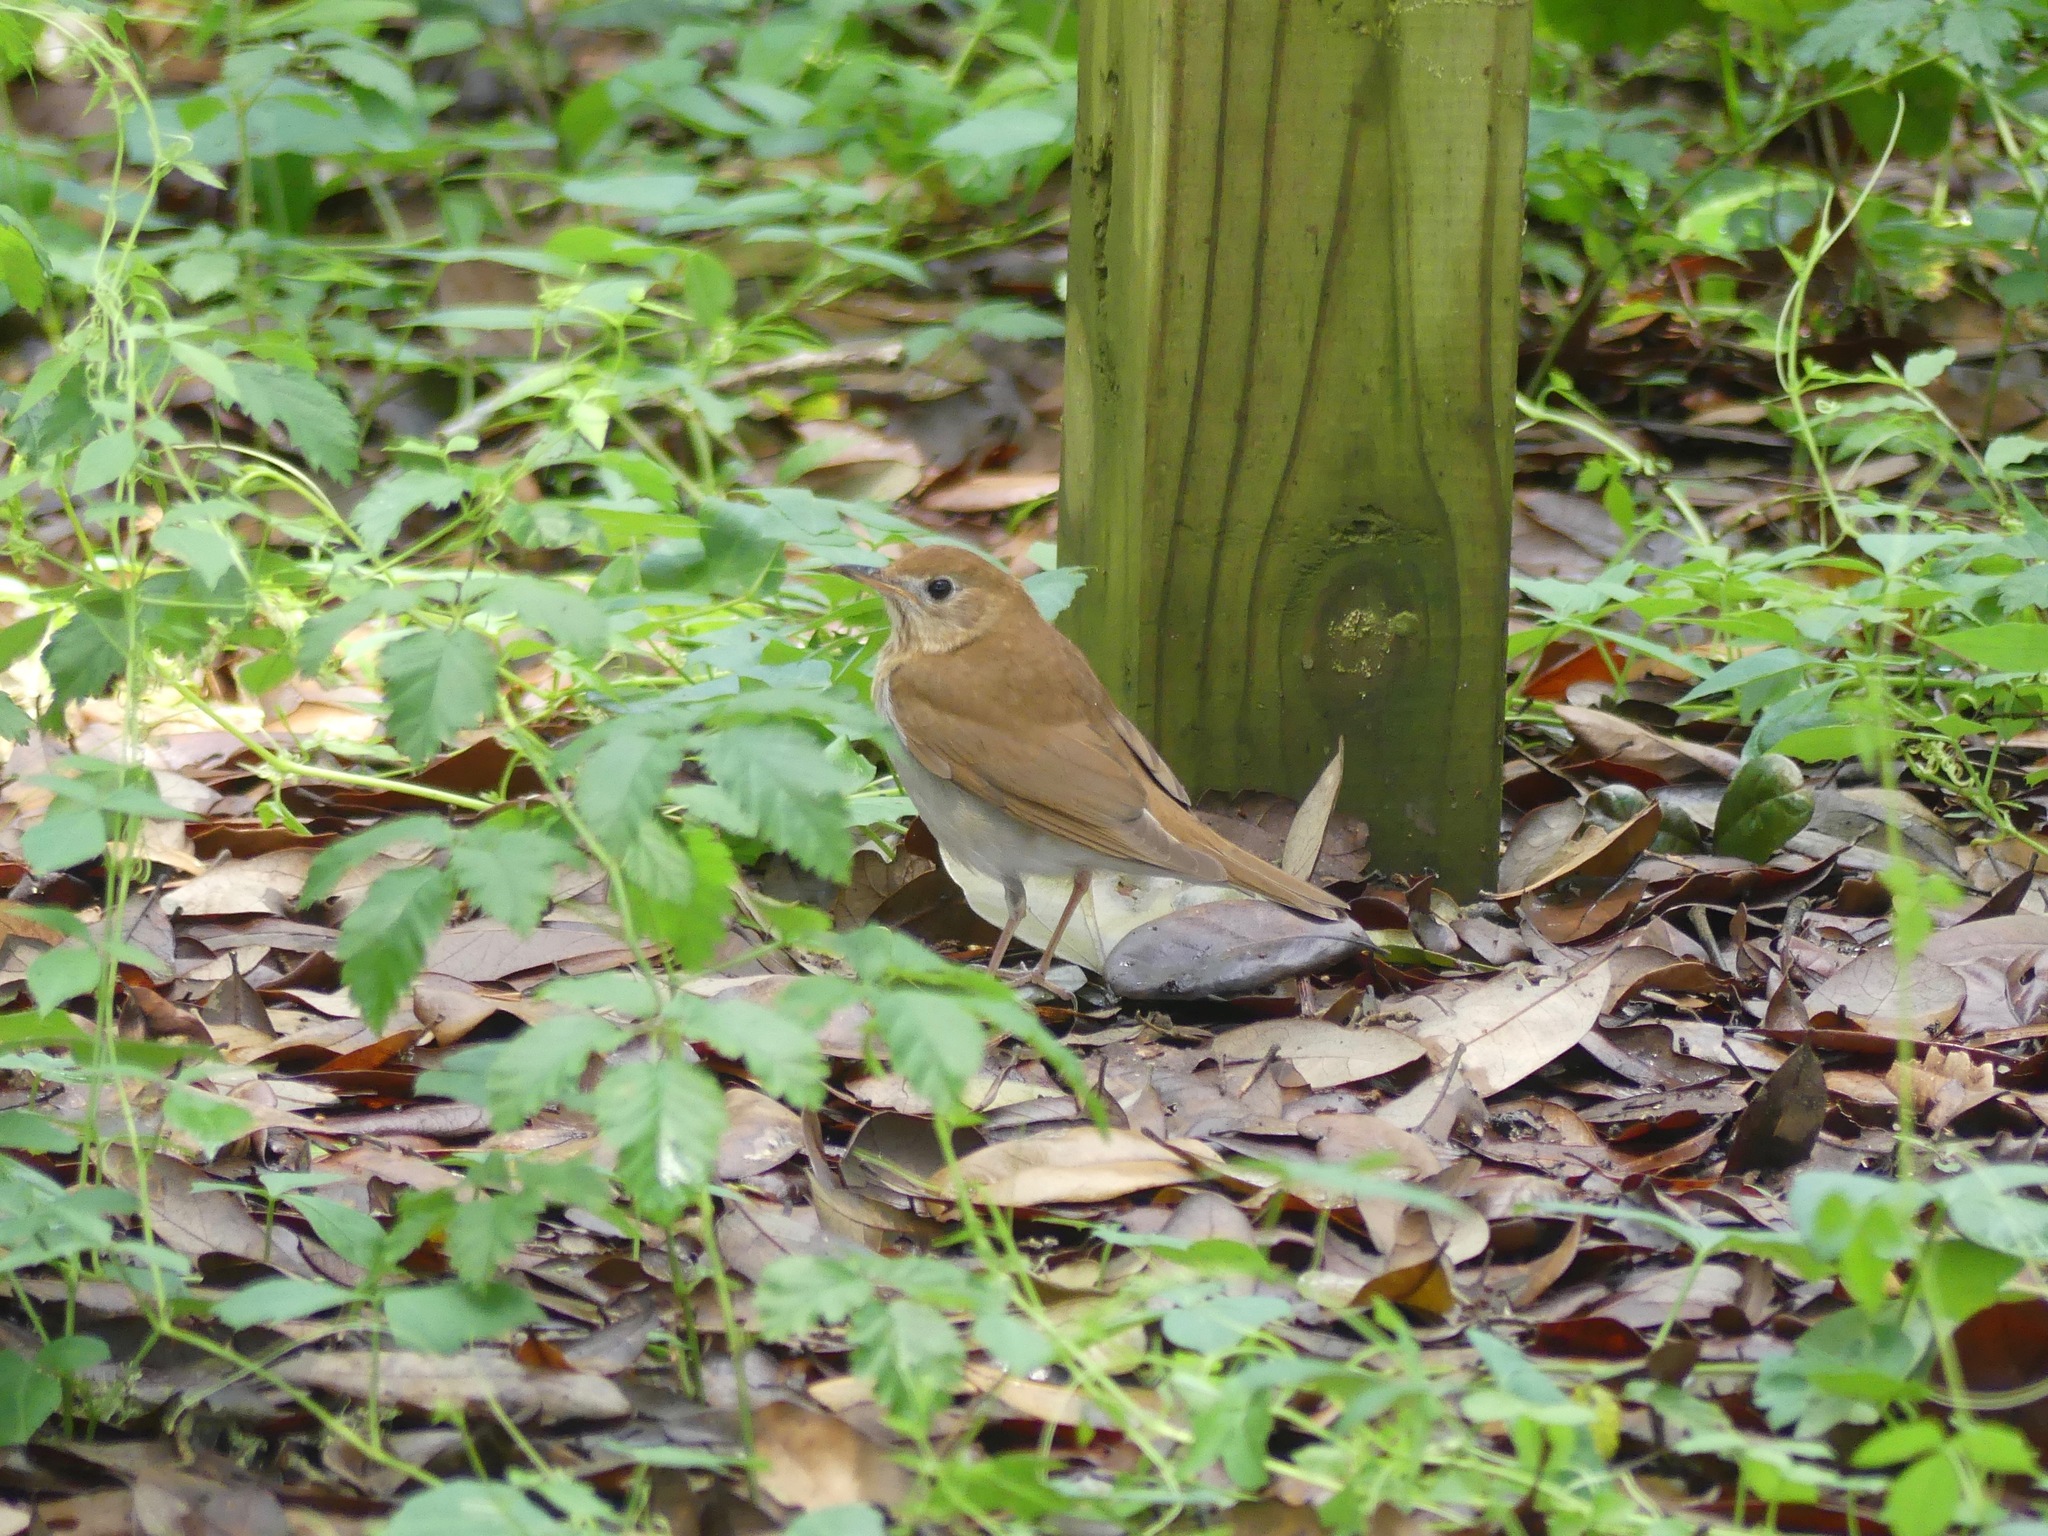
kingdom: Animalia
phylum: Chordata
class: Aves
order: Passeriformes
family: Turdidae
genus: Catharus
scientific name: Catharus fuscescens
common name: Veery
